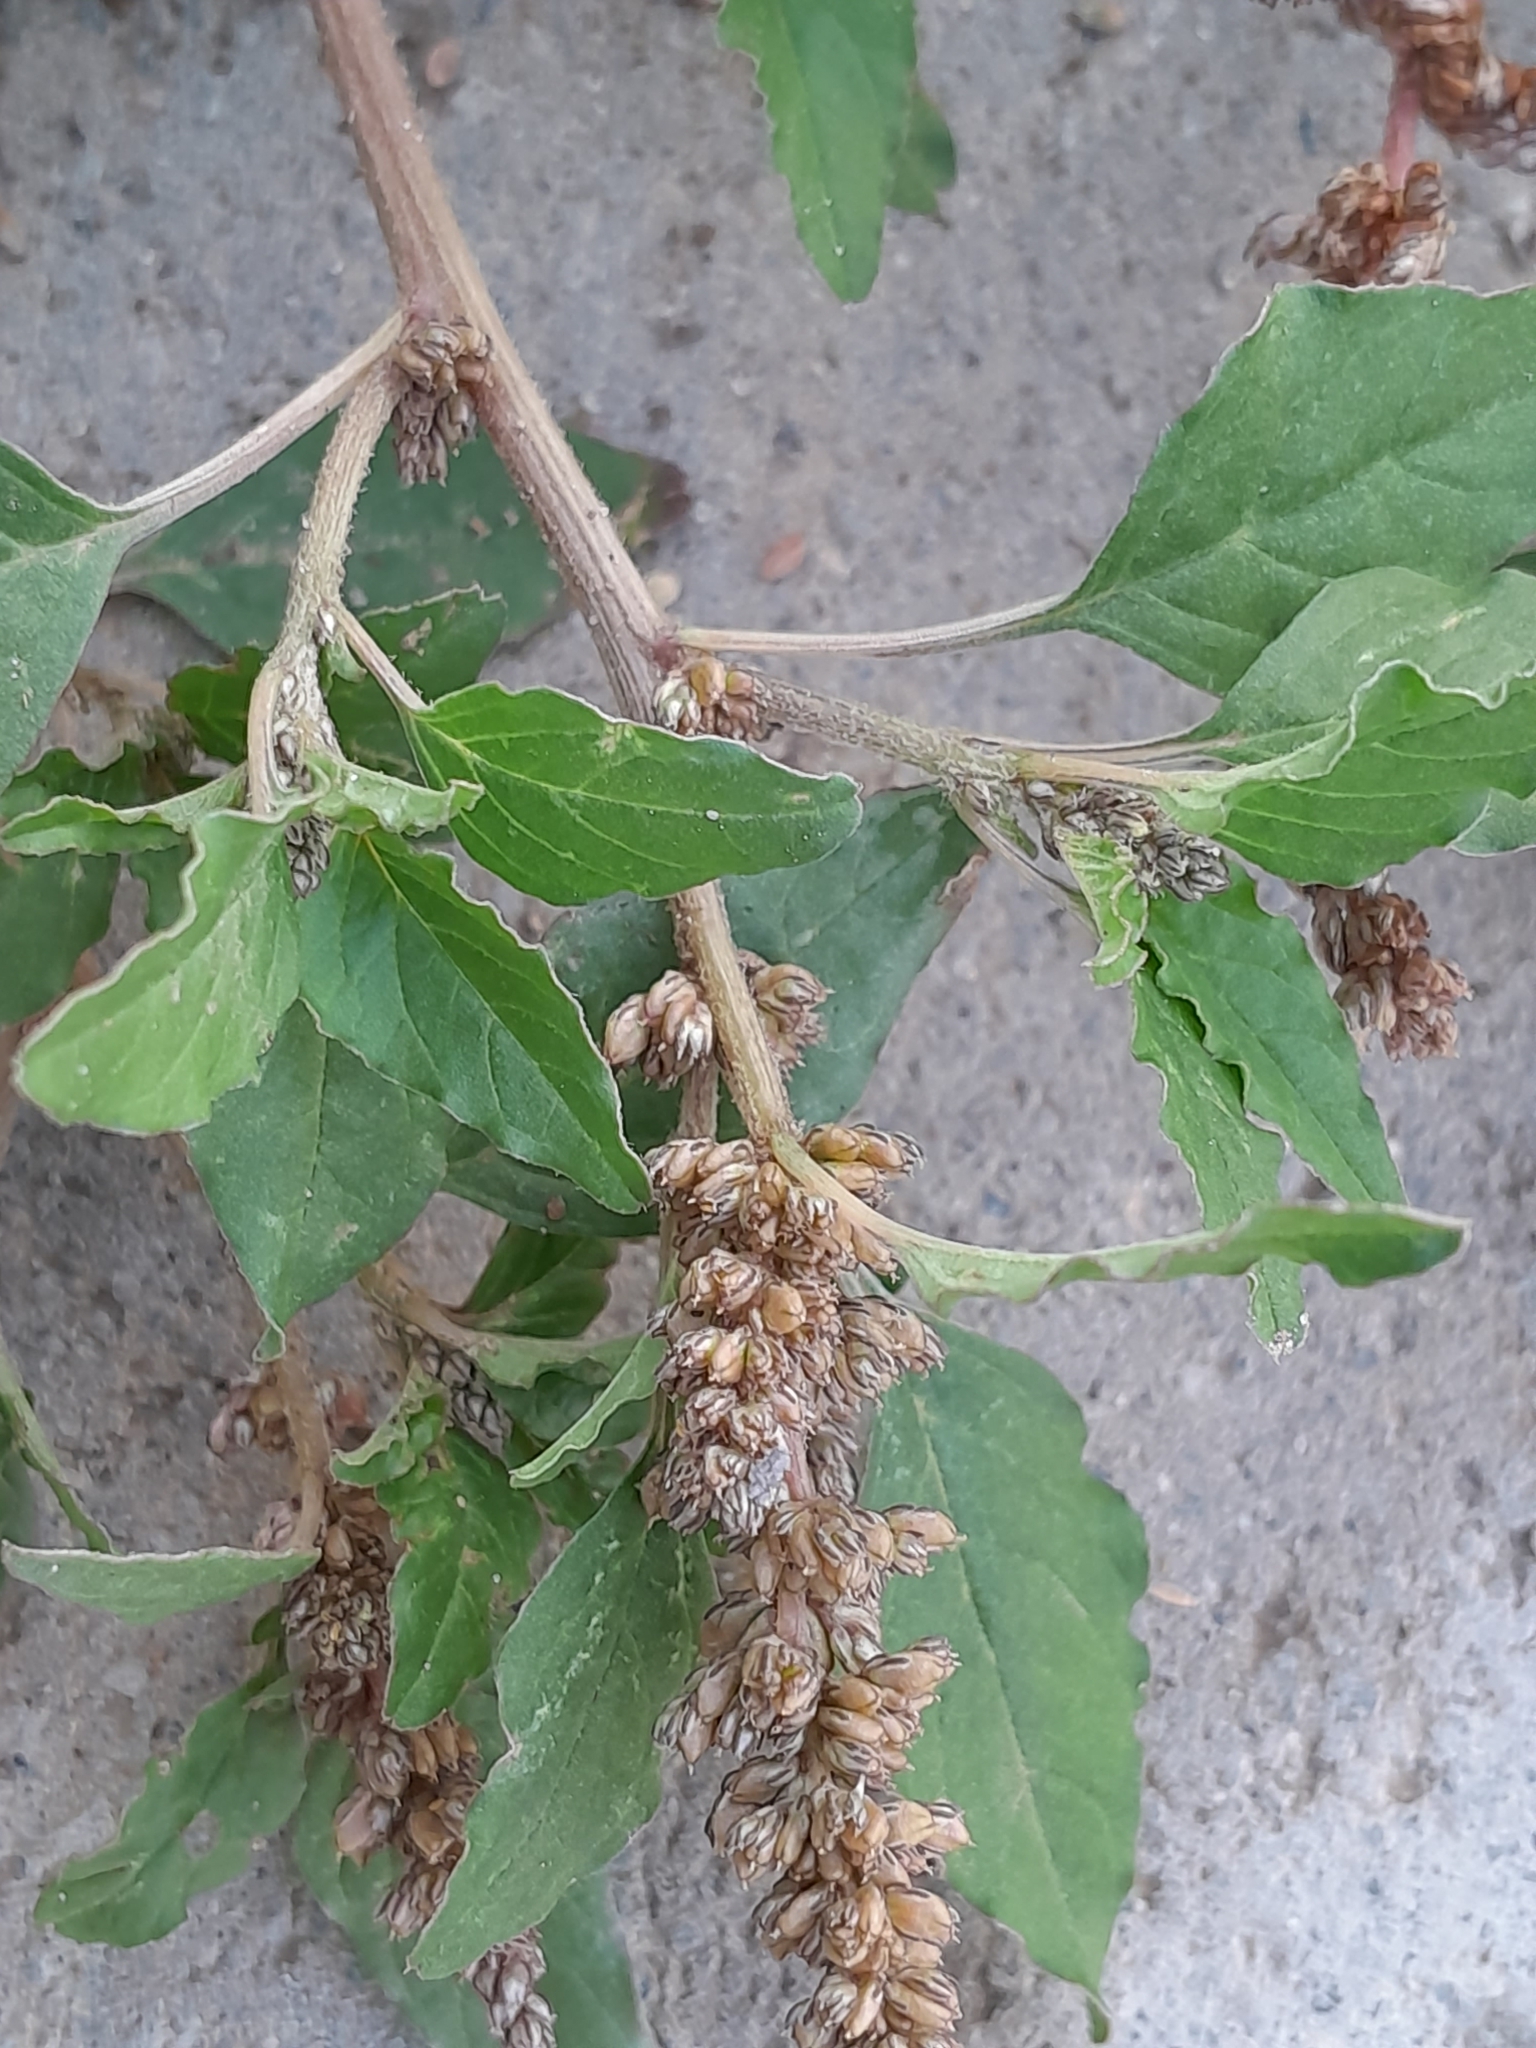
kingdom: Plantae
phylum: Tracheophyta
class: Magnoliopsida
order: Caryophyllales
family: Amaranthaceae
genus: Amaranthus
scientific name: Amaranthus deflexus
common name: Perennial pigweed
